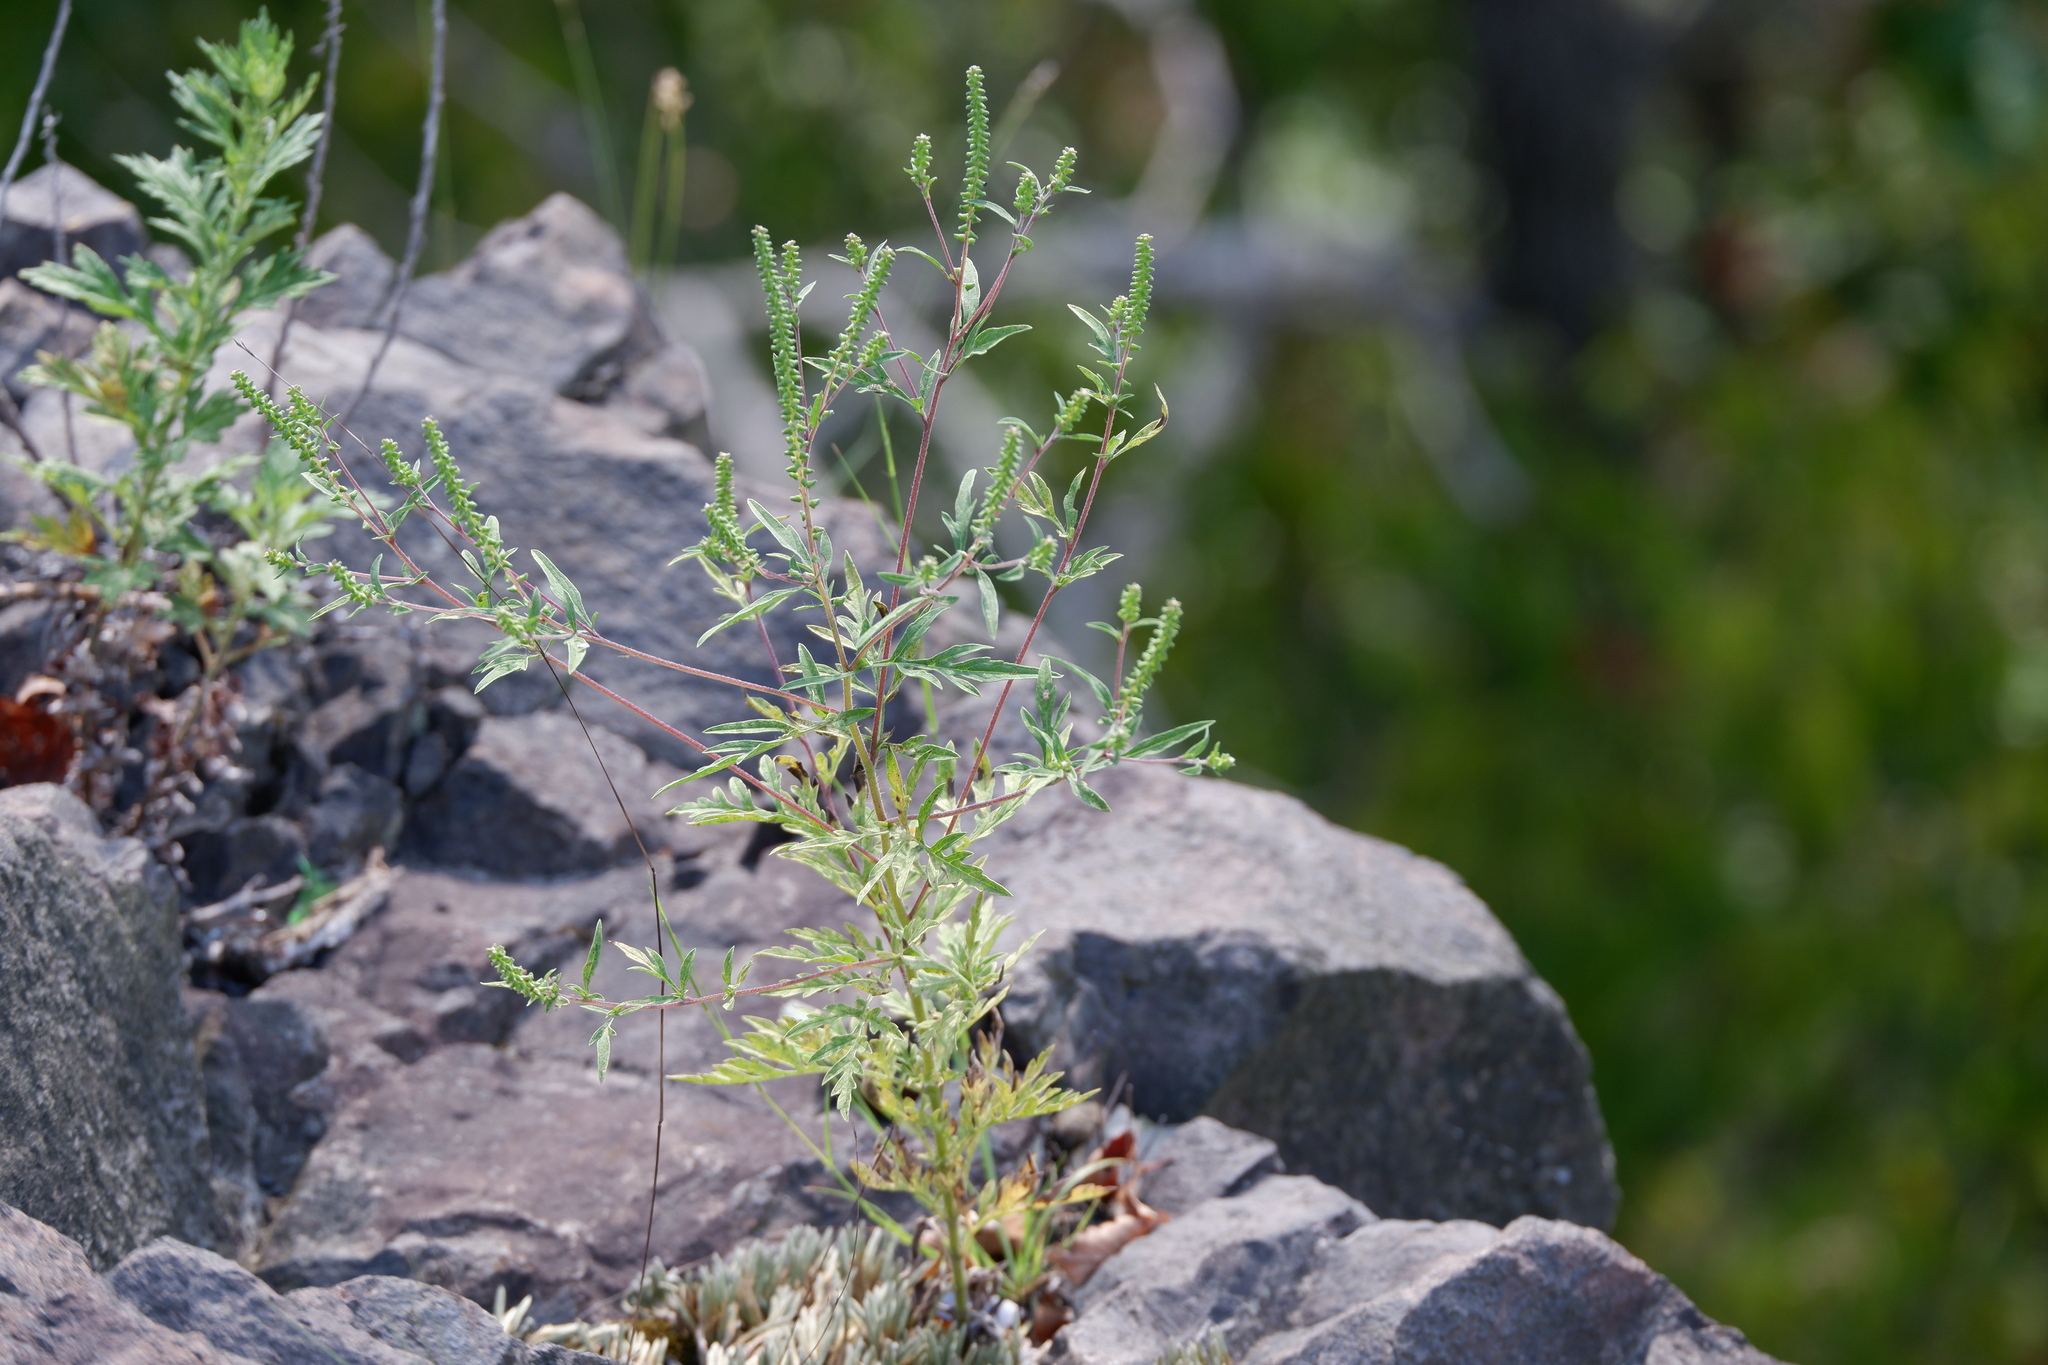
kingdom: Plantae
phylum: Tracheophyta
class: Magnoliopsida
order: Asterales
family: Asteraceae
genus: Ambrosia
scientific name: Ambrosia artemisiifolia
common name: Annual ragweed
